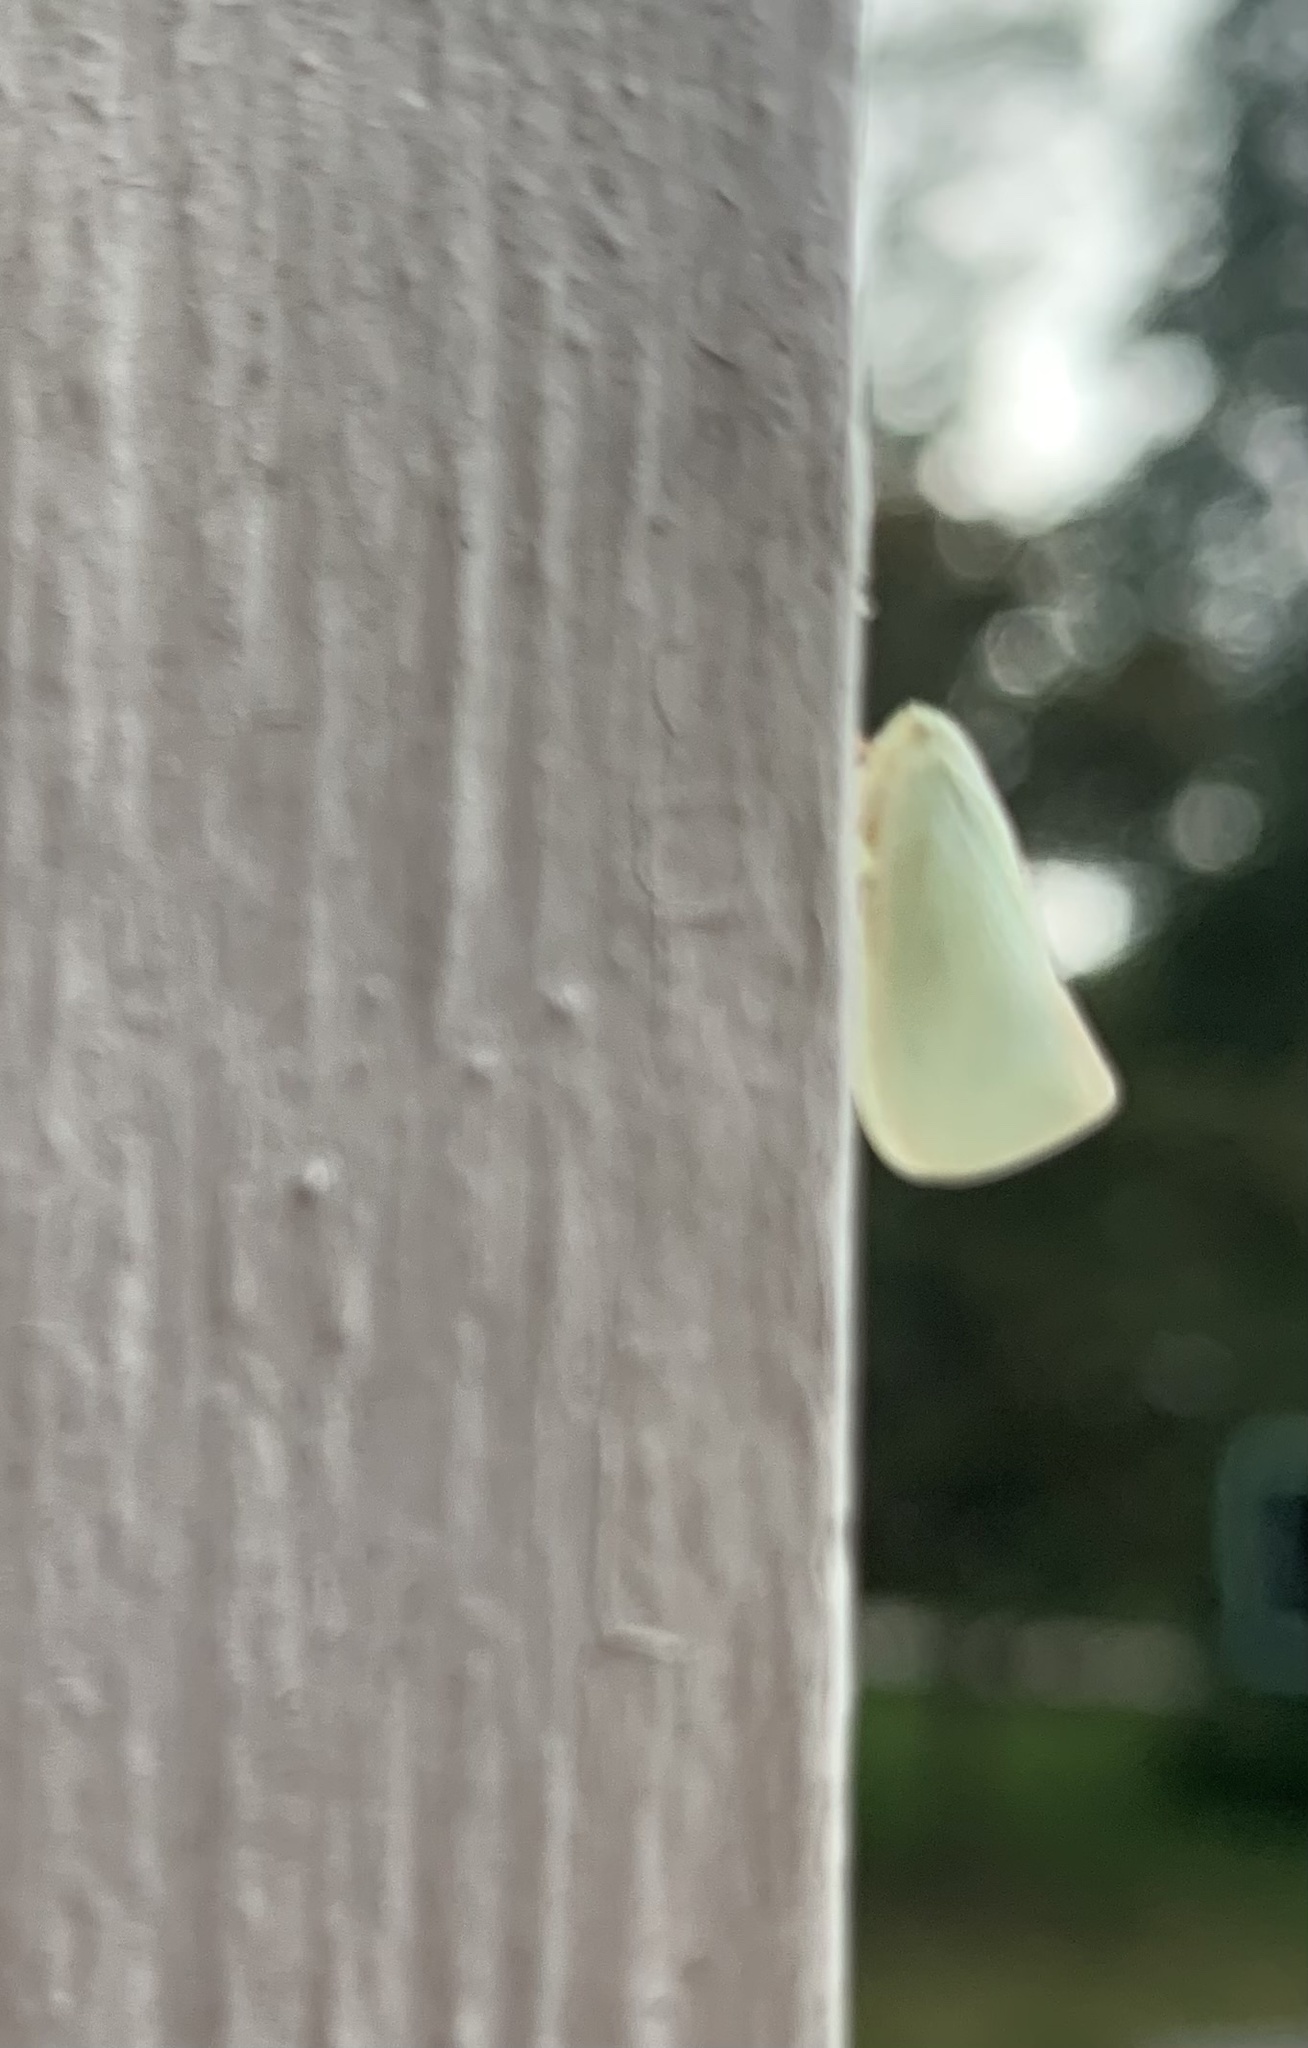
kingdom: Animalia
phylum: Arthropoda
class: Insecta
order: Hemiptera
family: Flatidae
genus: Flatormenis
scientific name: Flatormenis proxima
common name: Northern flatid planthopper
